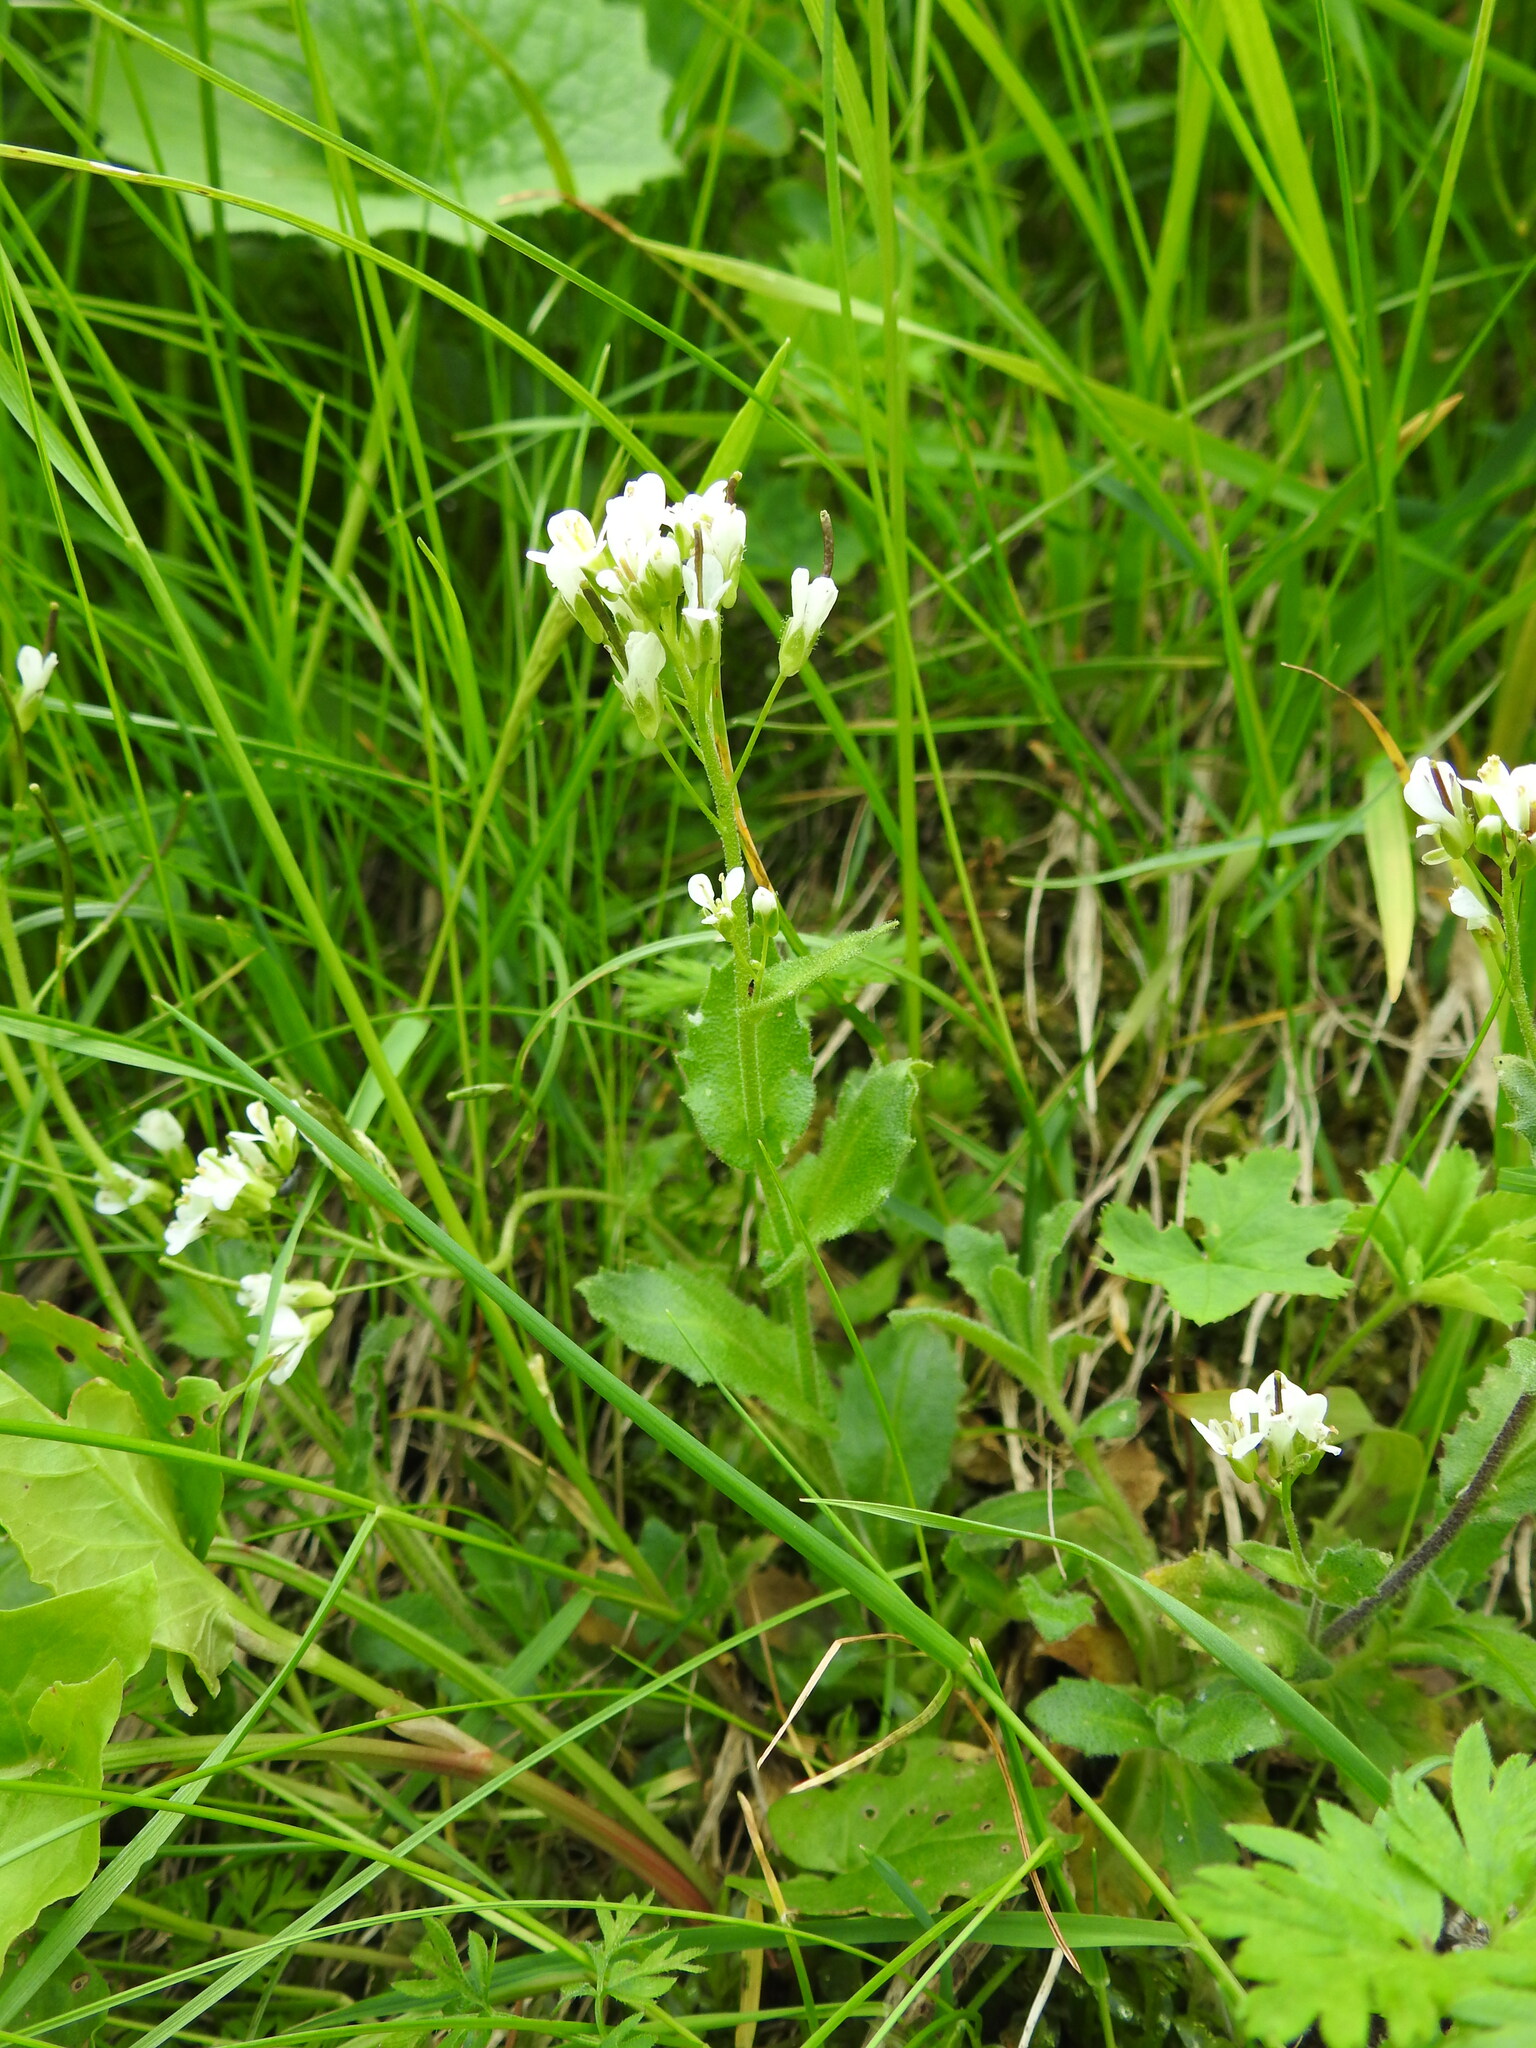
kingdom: Plantae
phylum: Tracheophyta
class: Magnoliopsida
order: Brassicales
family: Brassicaceae
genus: Arabis
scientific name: Arabis alpina
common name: Alpine rock-cress
